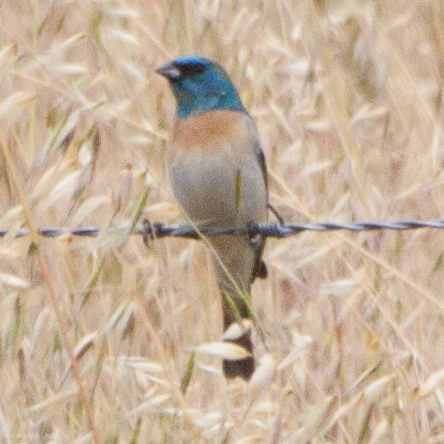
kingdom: Animalia
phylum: Chordata
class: Aves
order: Passeriformes
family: Cardinalidae
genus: Passerina
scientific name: Passerina amoena
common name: Lazuli bunting
